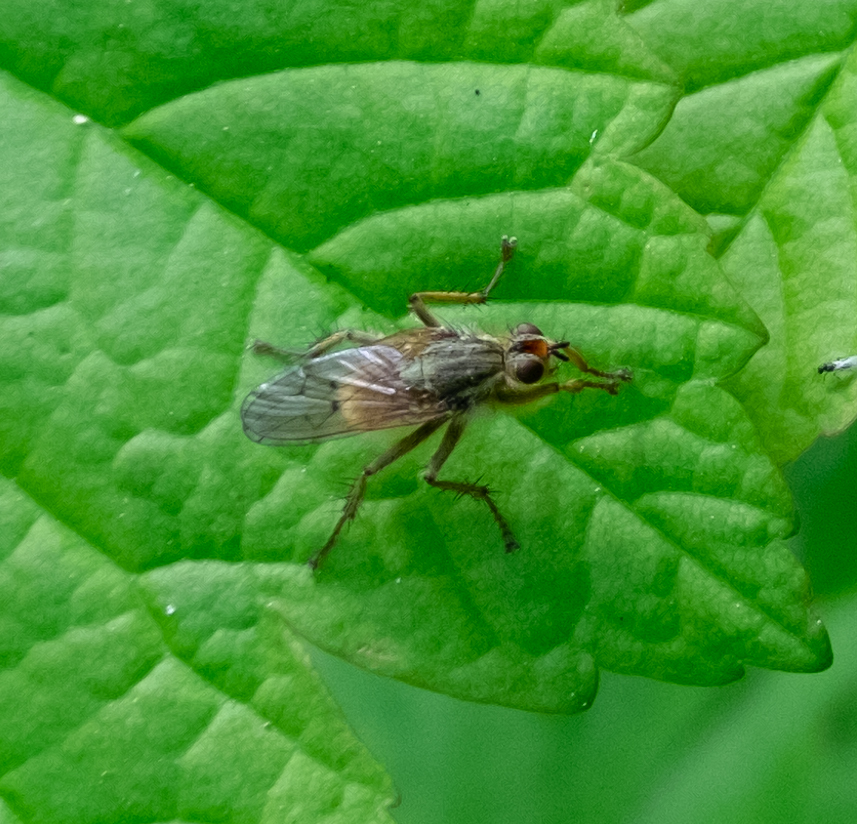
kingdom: Animalia
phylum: Arthropoda
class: Insecta
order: Diptera
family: Scathophagidae
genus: Scathophaga
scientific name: Scathophaga stercoraria
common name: Yellow dung fly
